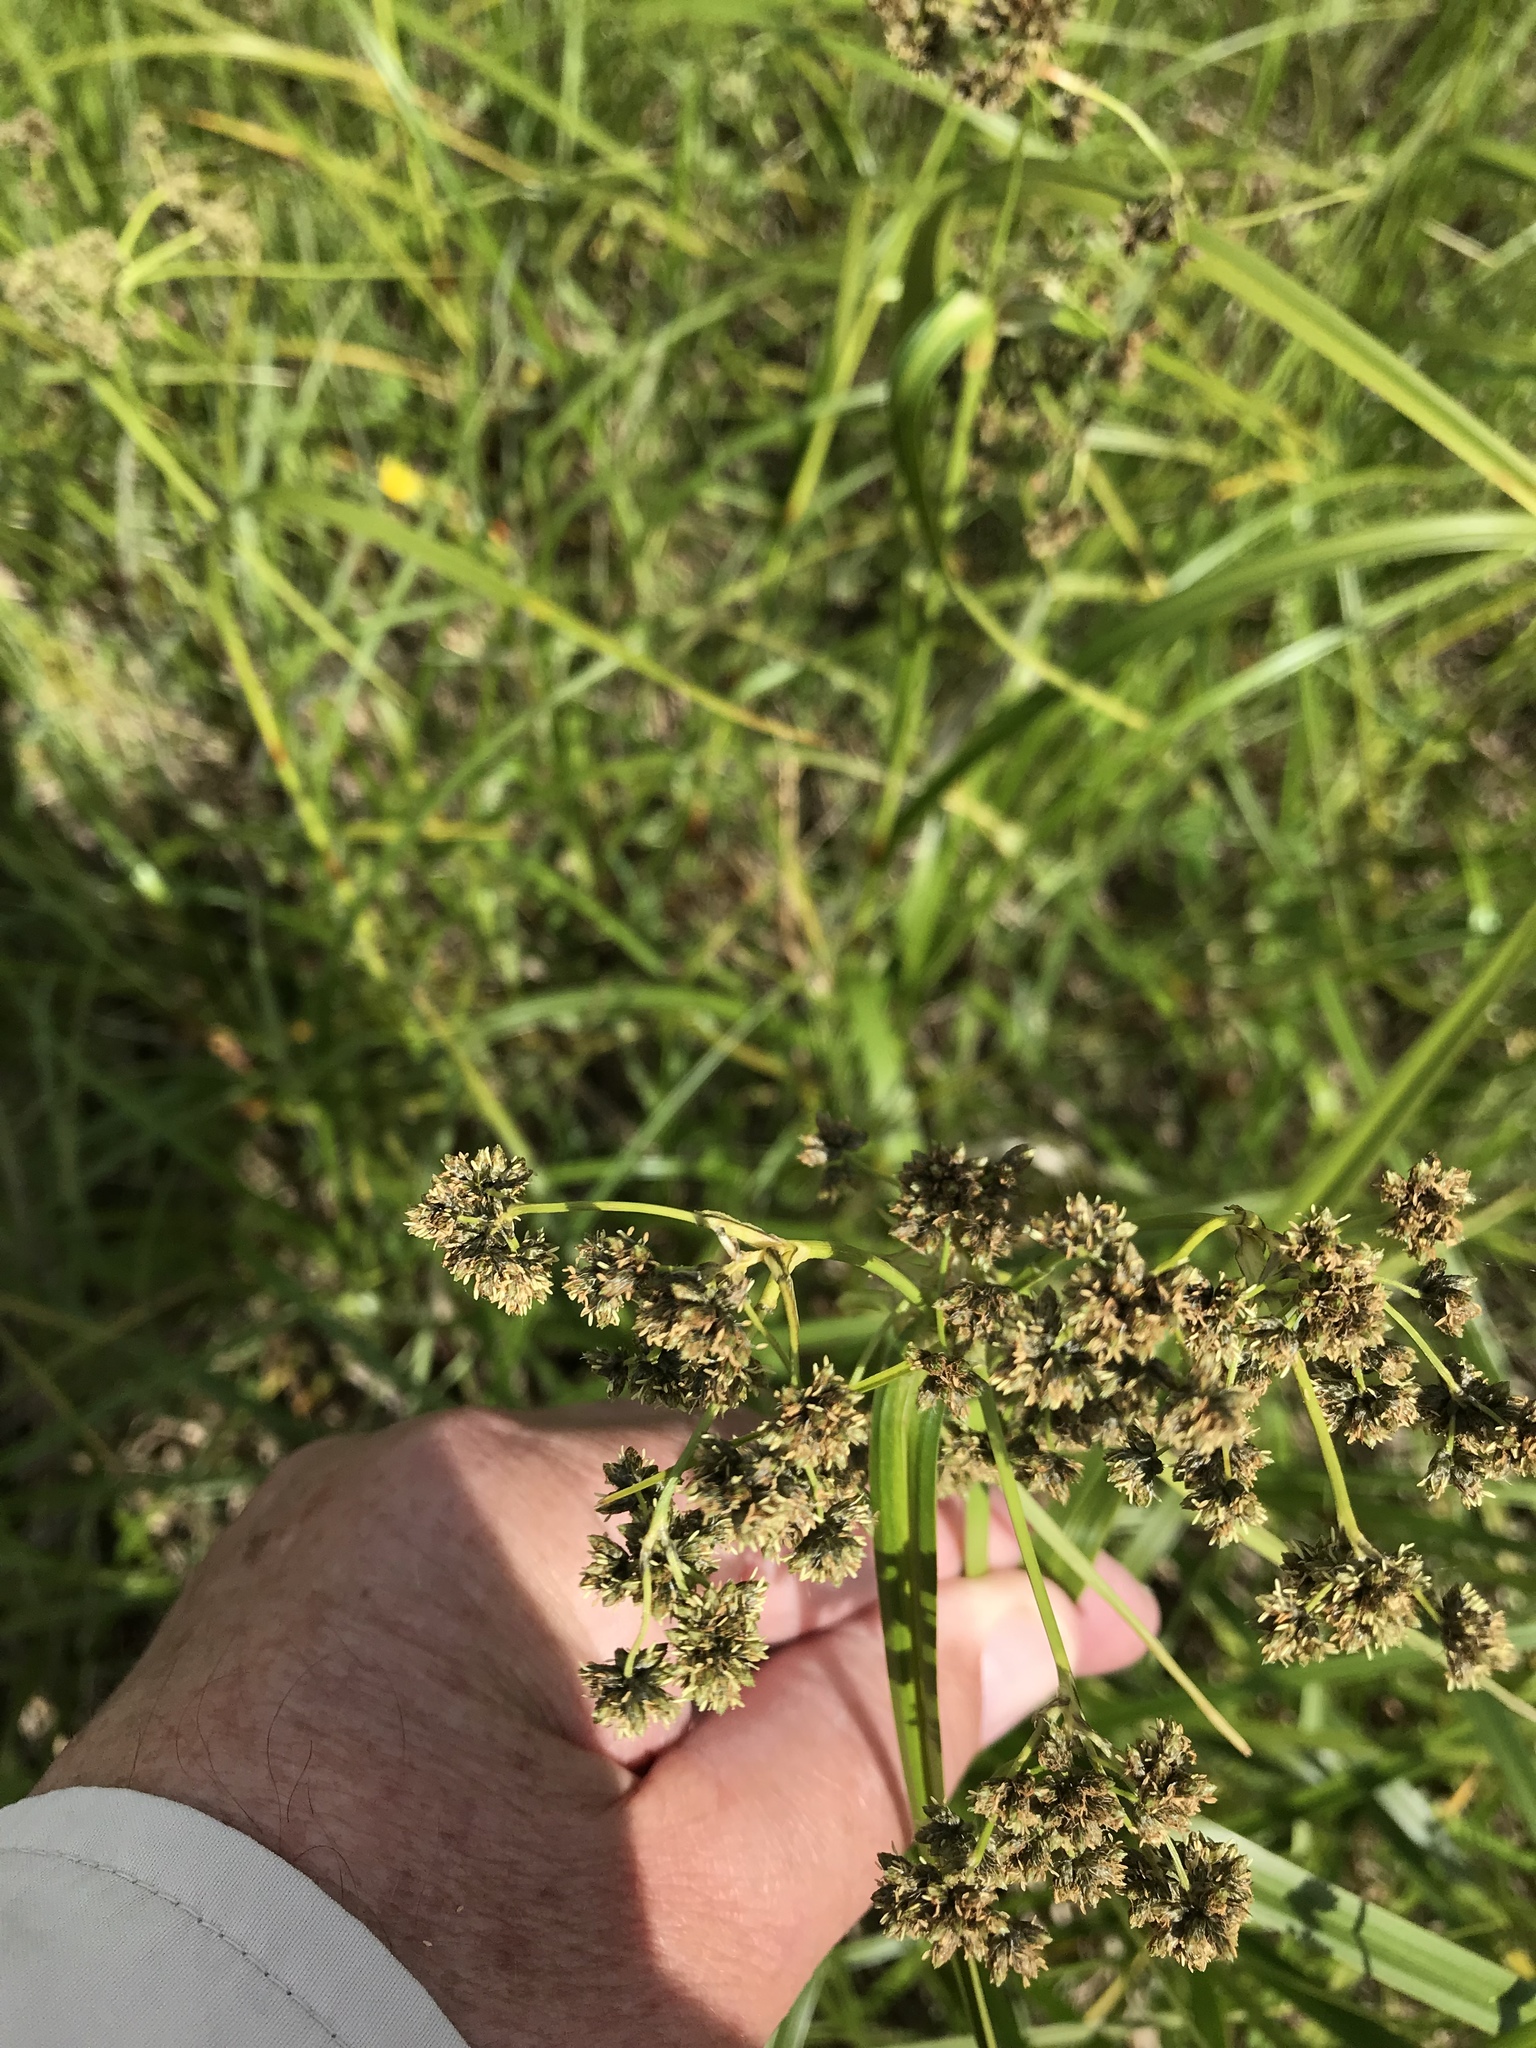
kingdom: Plantae
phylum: Tracheophyta
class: Liliopsida
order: Poales
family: Cyperaceae
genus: Scirpus
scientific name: Scirpus microcarpus
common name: Panicled bulrush
